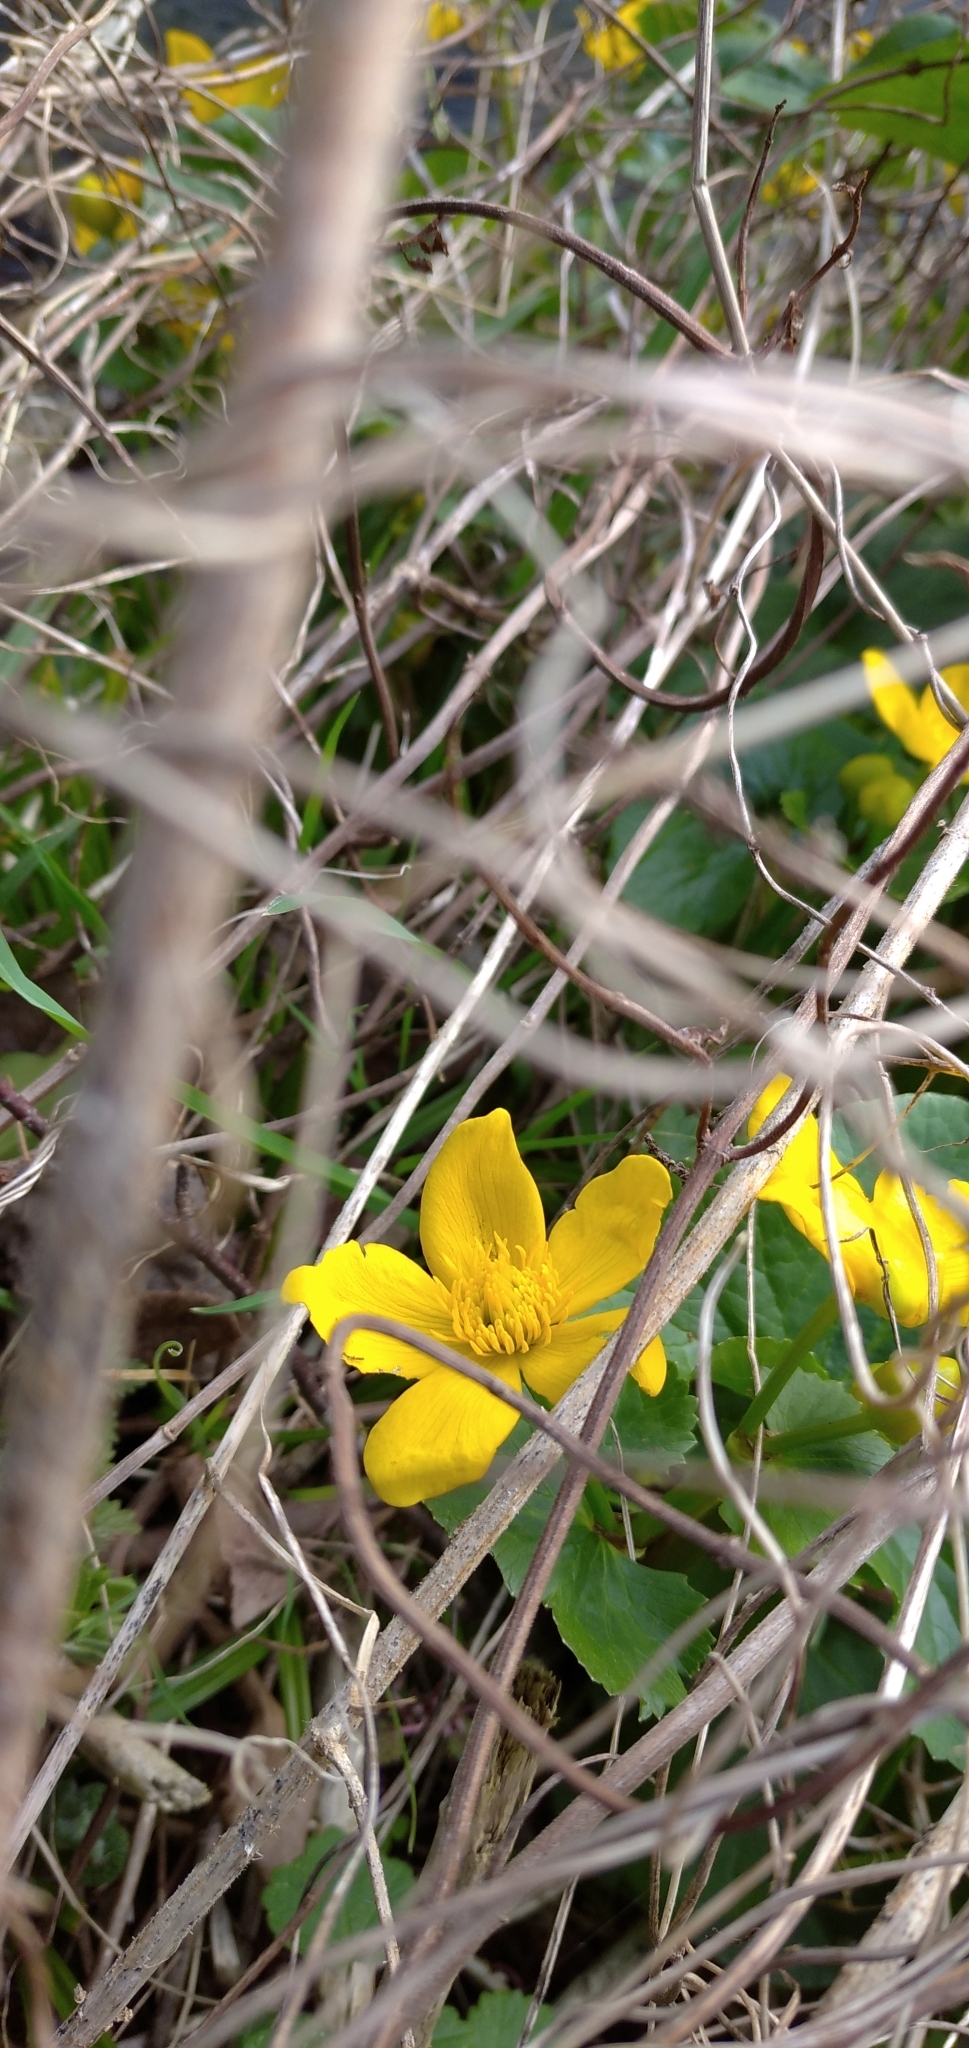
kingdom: Plantae
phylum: Tracheophyta
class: Magnoliopsida
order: Ranunculales
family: Ranunculaceae
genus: Caltha
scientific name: Caltha palustris
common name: Marsh marigold
